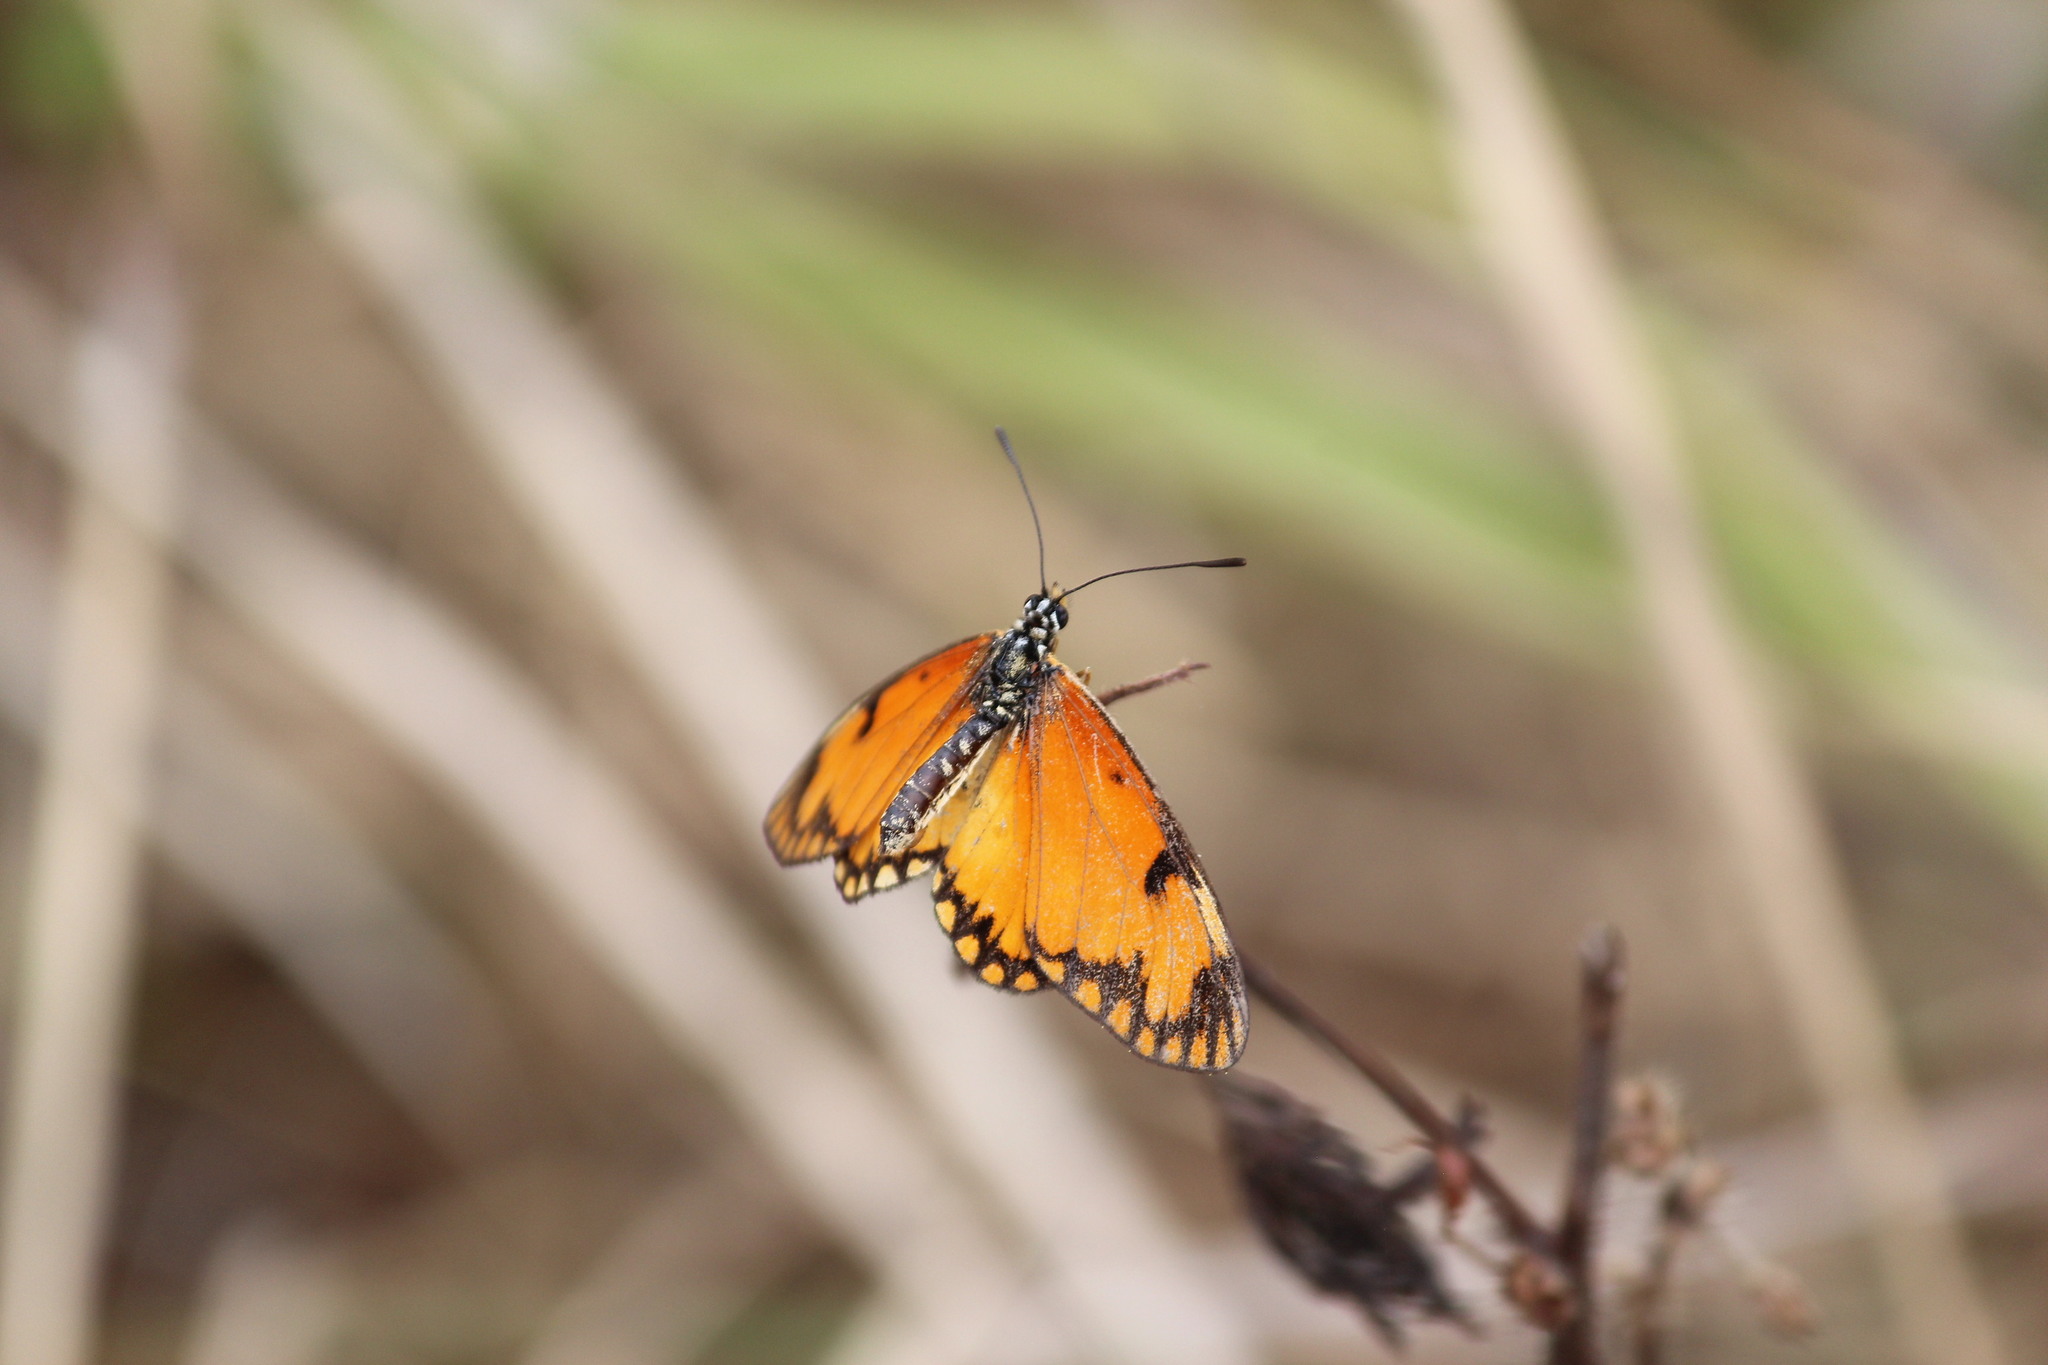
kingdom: Animalia
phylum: Arthropoda
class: Insecta
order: Lepidoptera
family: Nymphalidae
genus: Acraea
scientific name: Acraea Telchinia serena
